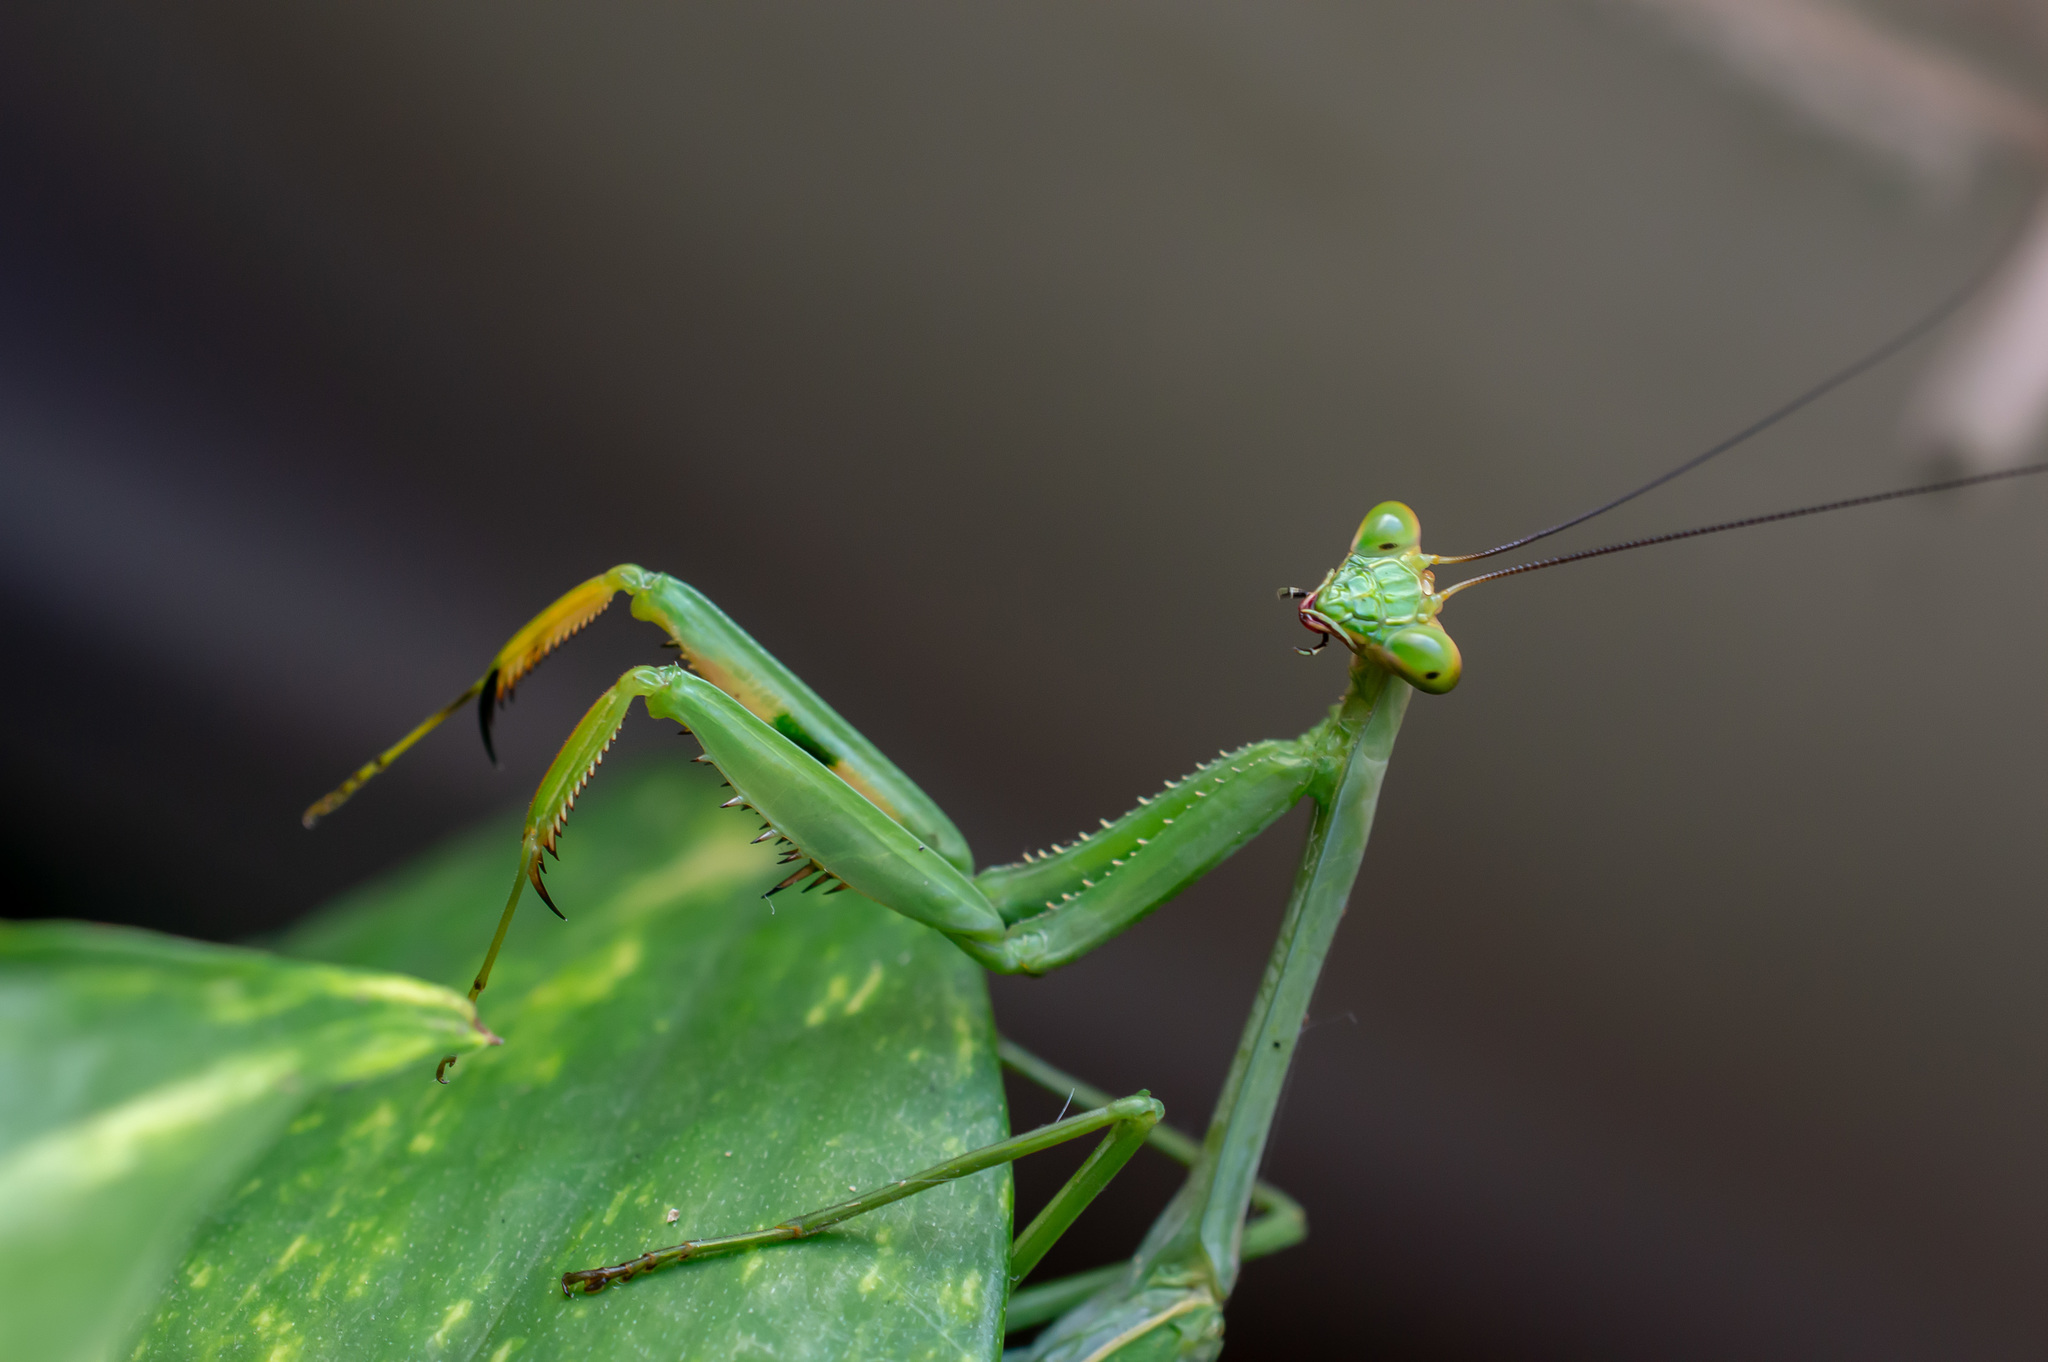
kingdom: Animalia
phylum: Arthropoda
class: Insecta
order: Mantodea
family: Mantidae
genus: Stagmatoptera
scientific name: Stagmatoptera pia
